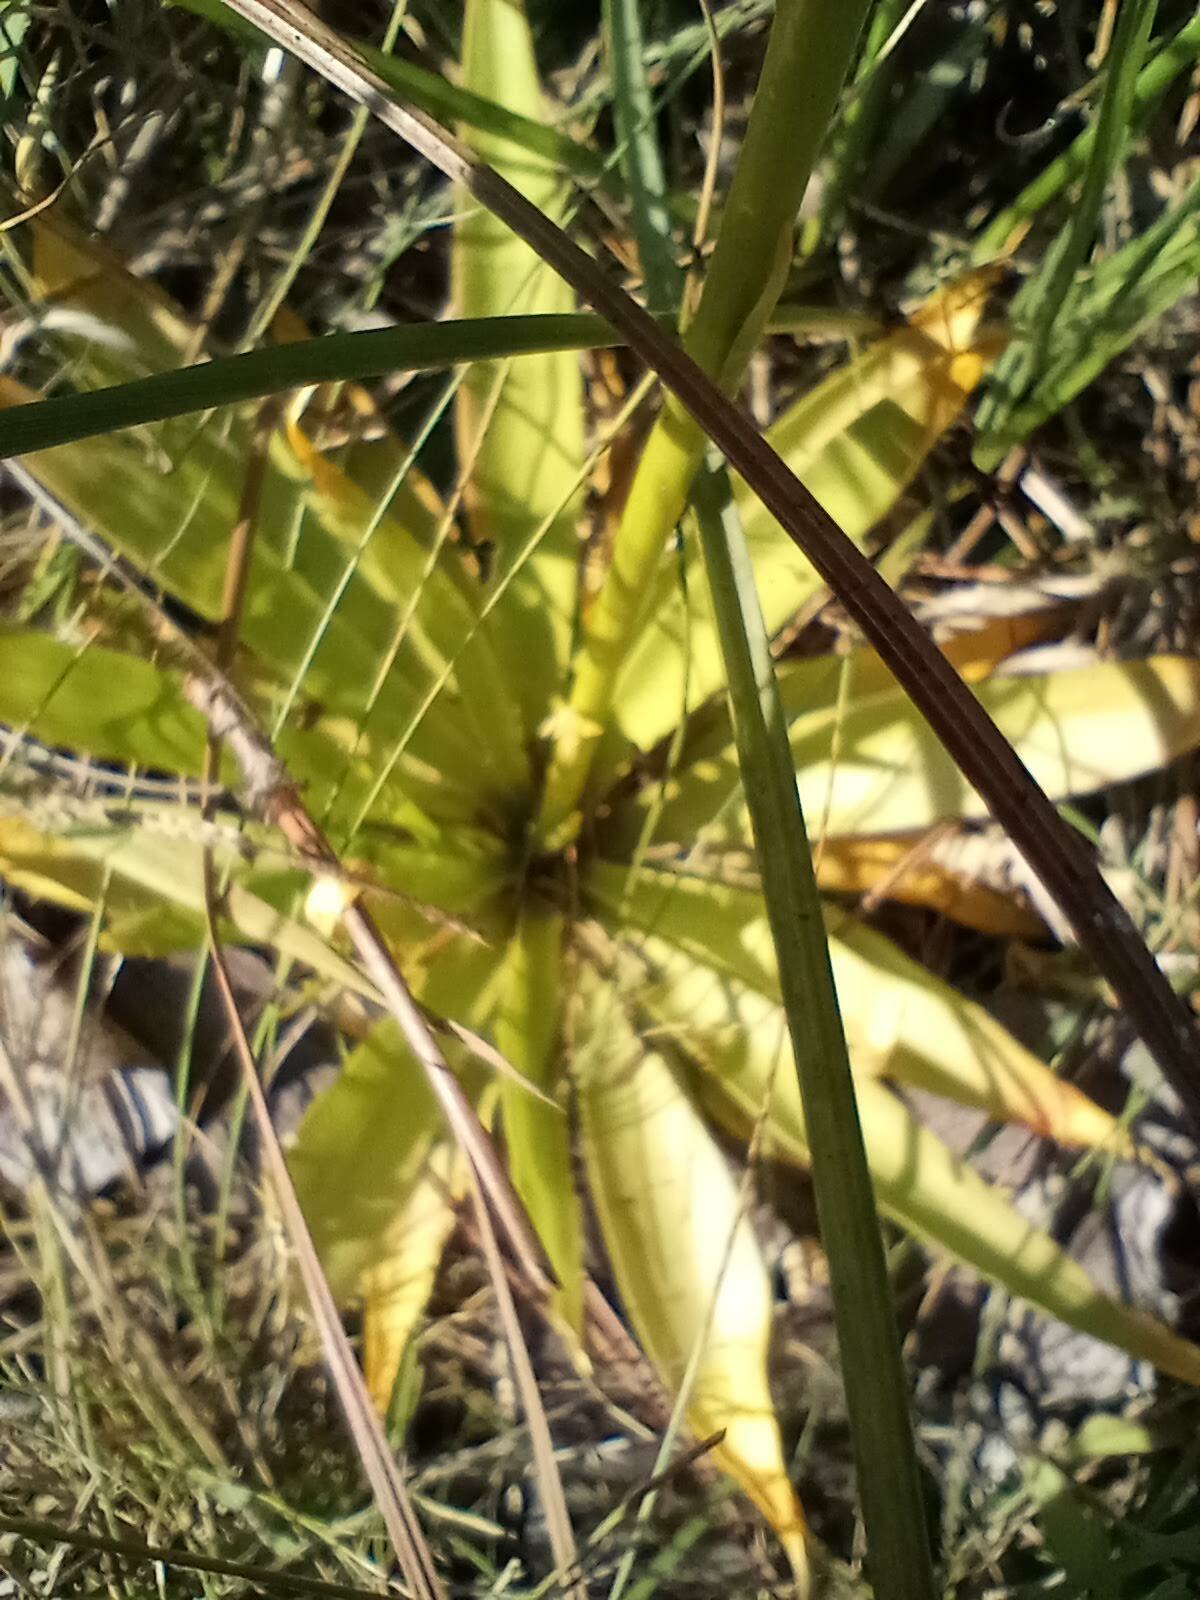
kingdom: Plantae
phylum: Tracheophyta
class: Liliopsida
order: Dioscoreales
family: Nartheciaceae
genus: Aletris
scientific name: Aletris lutea
